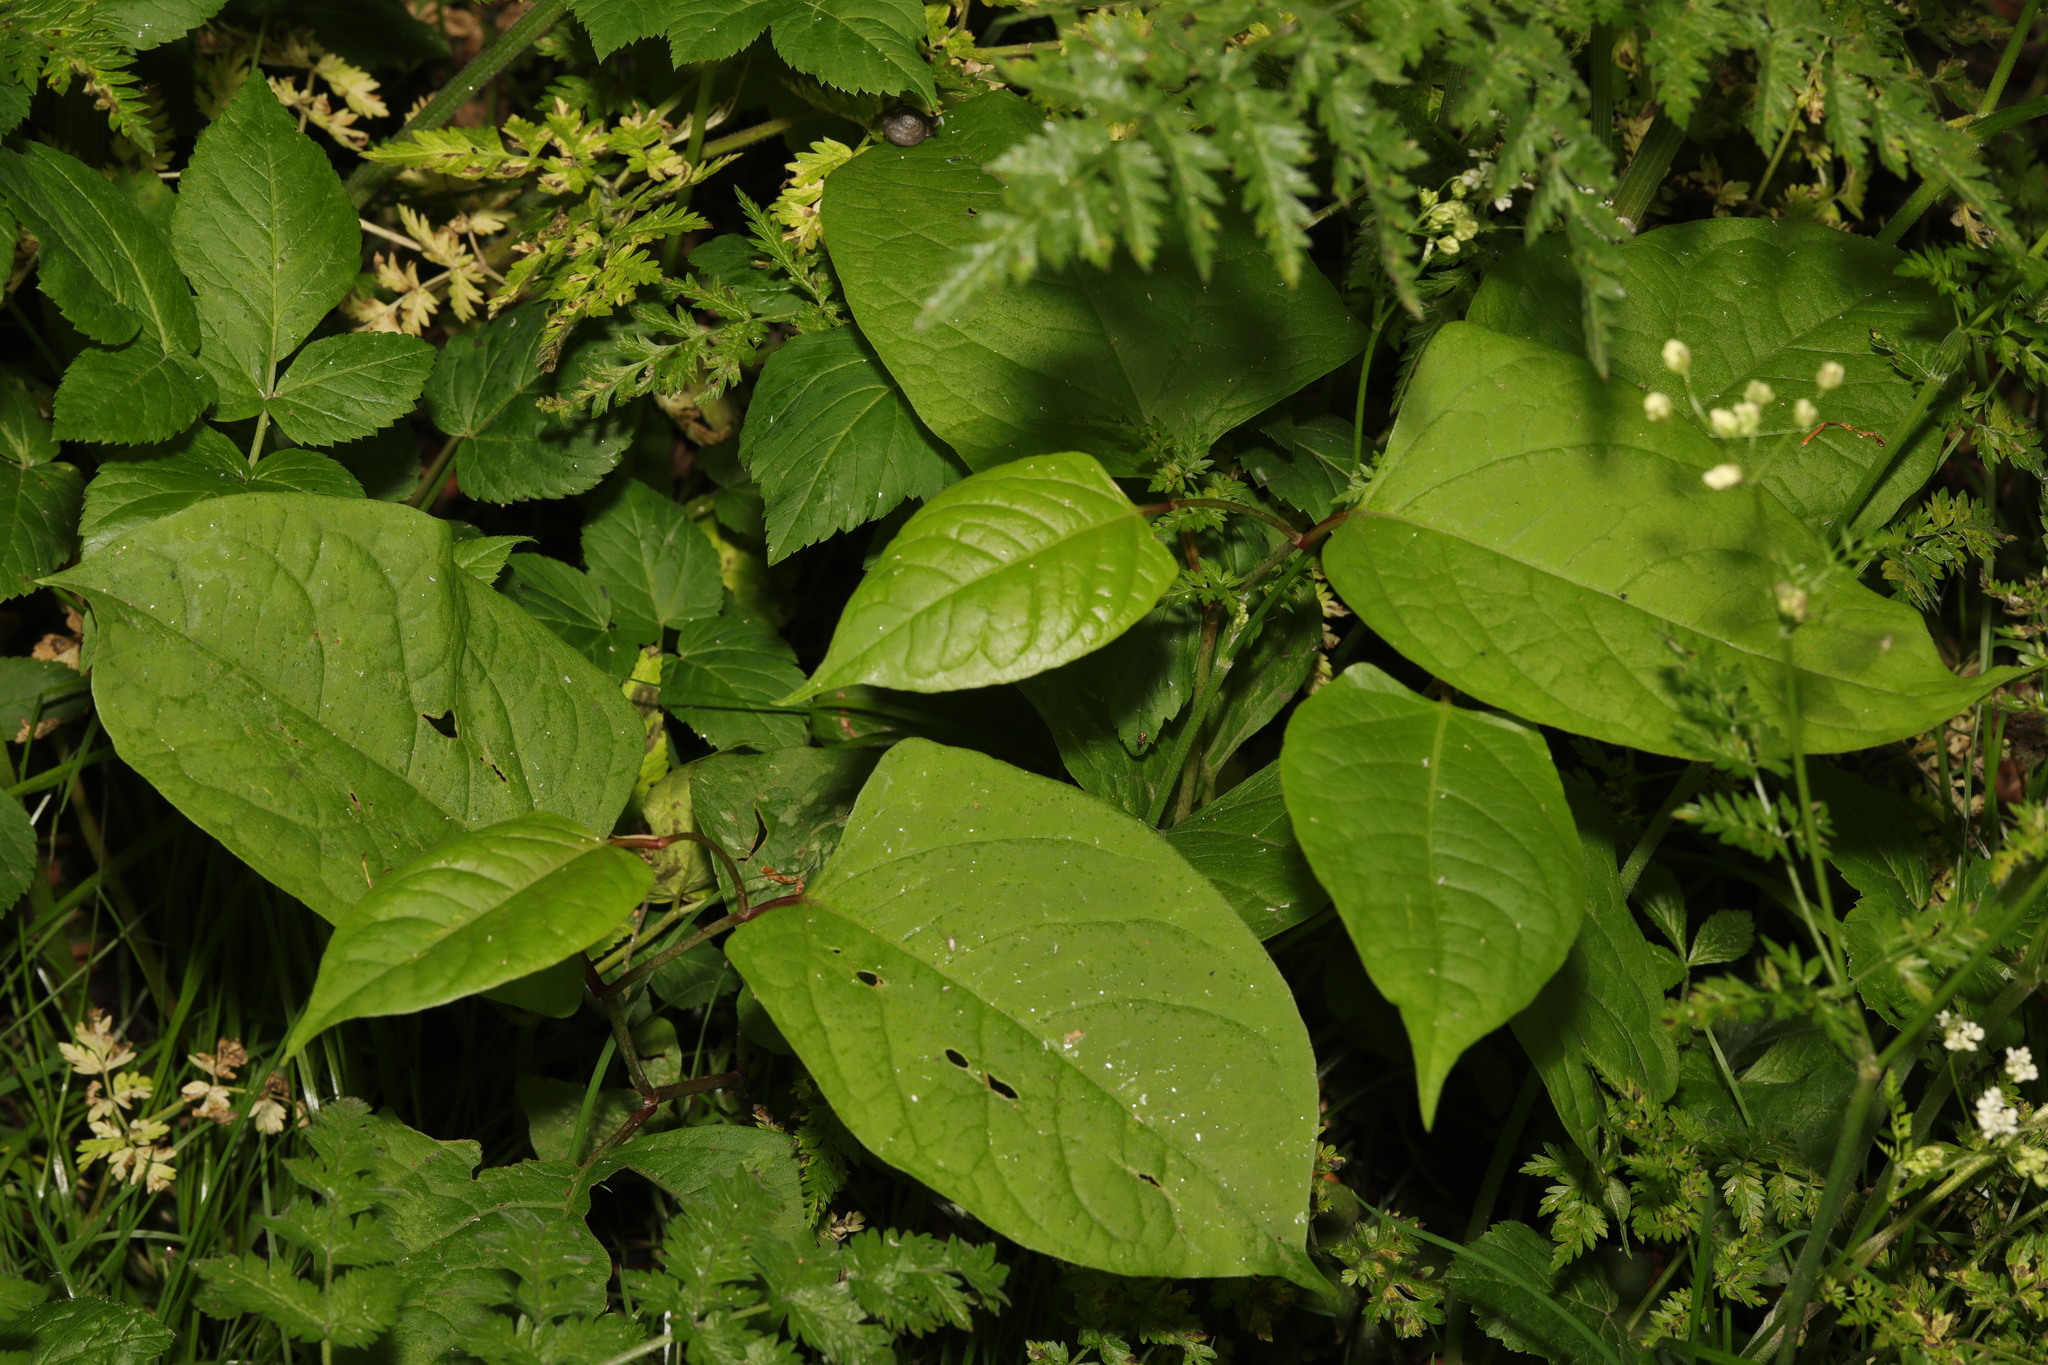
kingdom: Plantae
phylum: Tracheophyta
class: Magnoliopsida
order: Caryophyllales
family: Polygonaceae
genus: Reynoutria
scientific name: Reynoutria japonica
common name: Japanese knotweed
